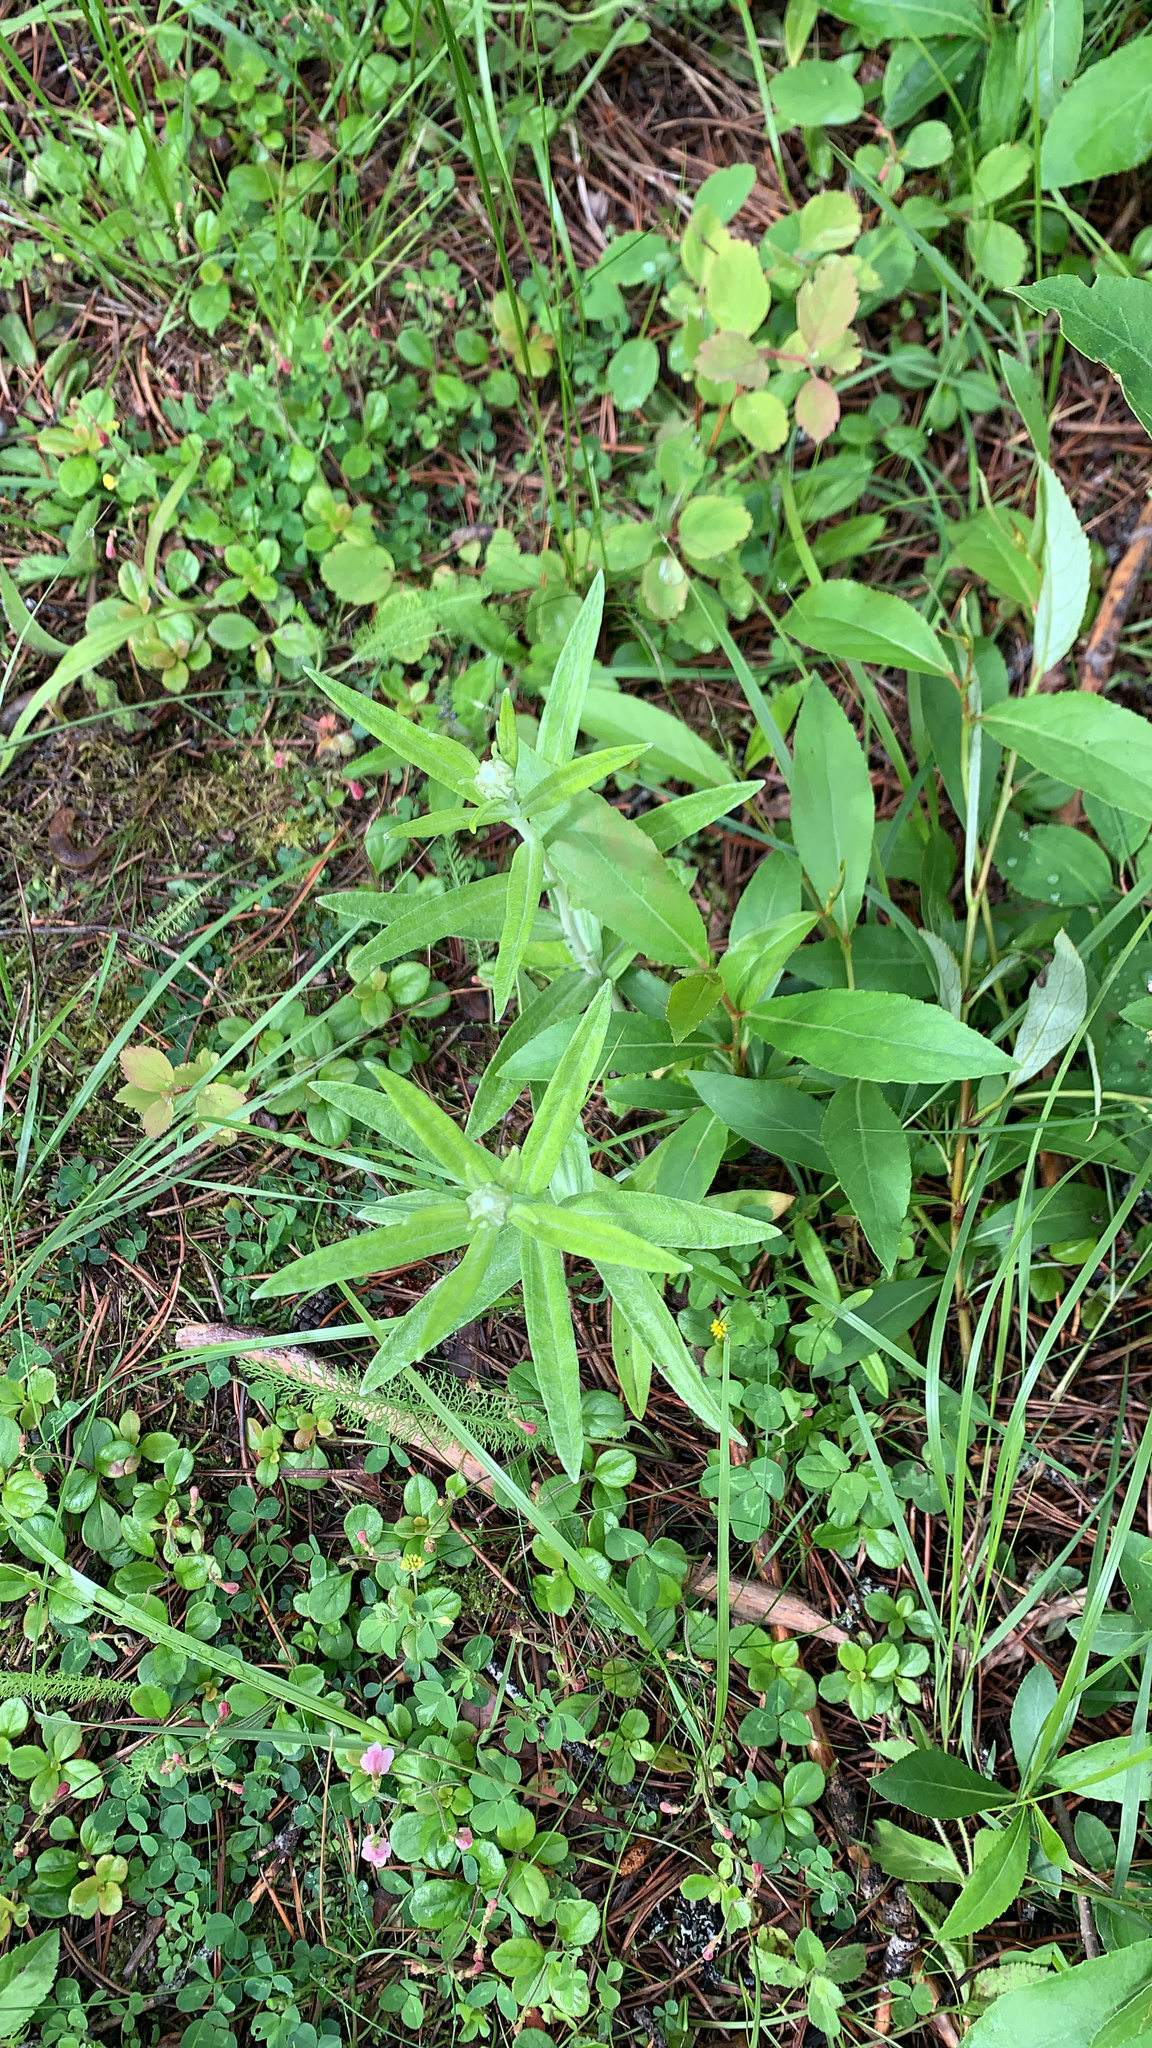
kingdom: Plantae
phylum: Tracheophyta
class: Magnoliopsida
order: Asterales
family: Asteraceae
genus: Anaphalis
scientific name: Anaphalis margaritacea
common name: Pearly everlasting
